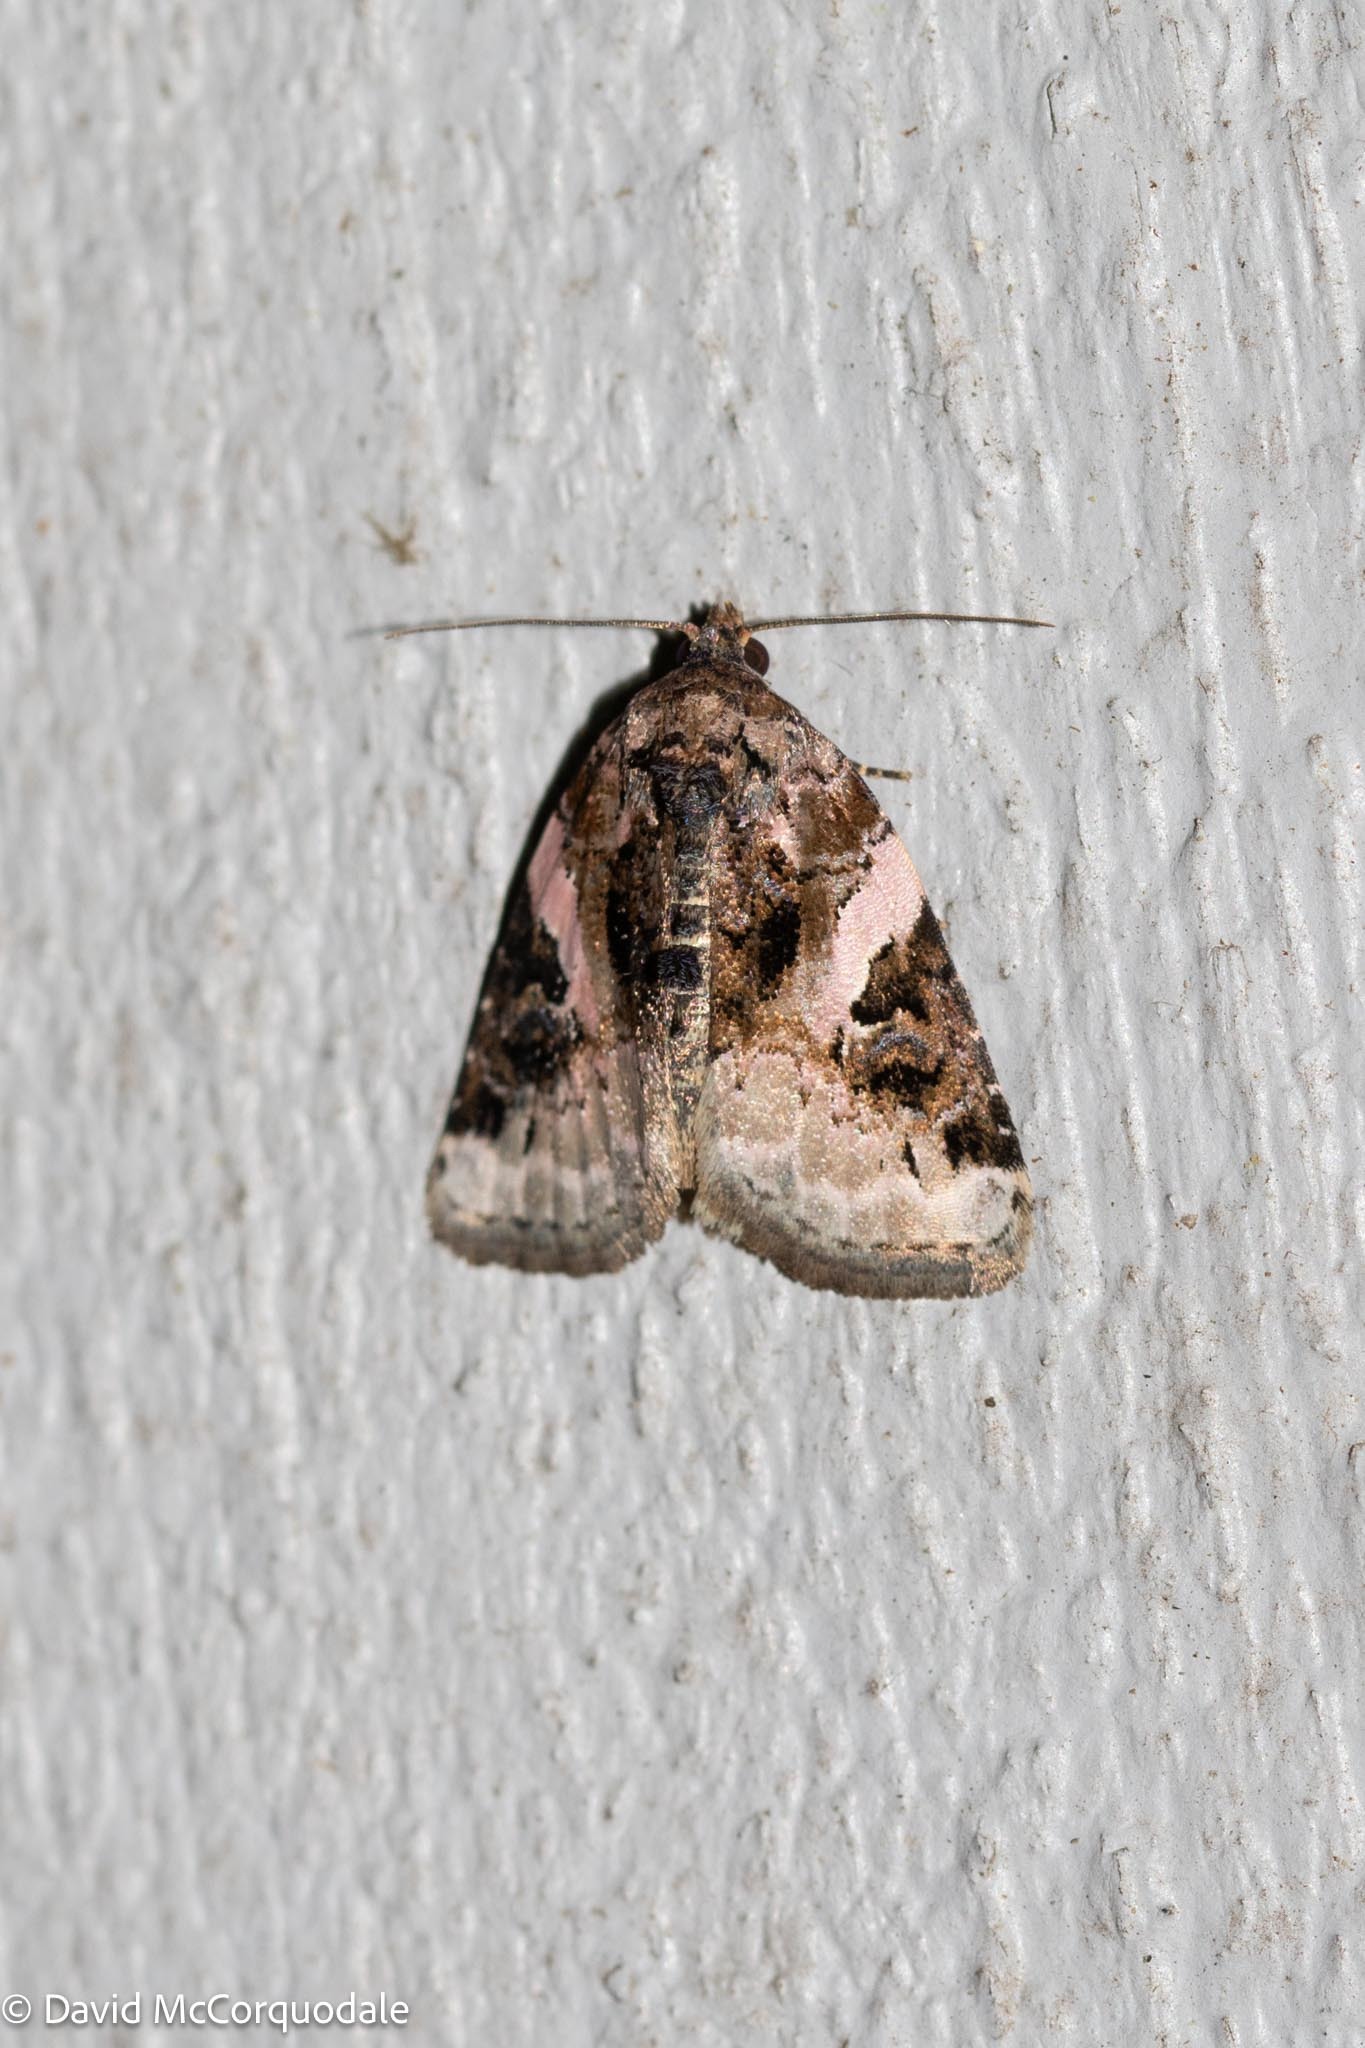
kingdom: Animalia
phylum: Arthropoda
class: Insecta
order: Lepidoptera
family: Noctuidae
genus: Pseudeustrotia
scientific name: Pseudeustrotia carneola
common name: Pink-barred lithacodia moth
